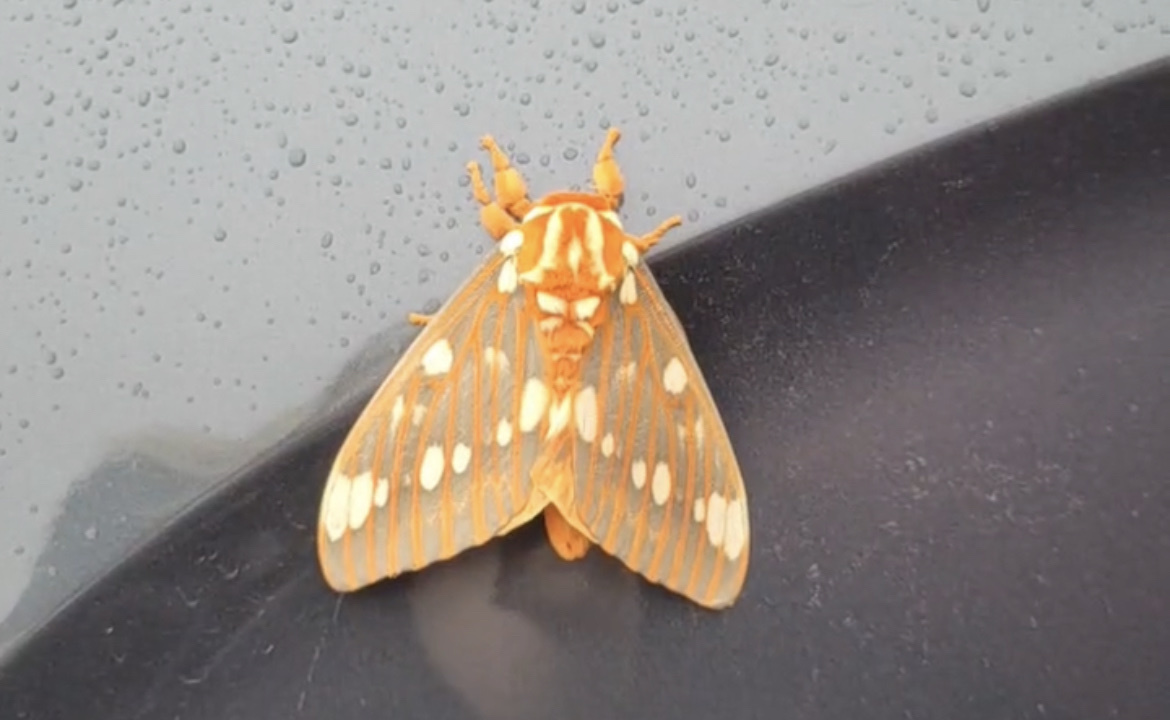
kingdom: Animalia
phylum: Arthropoda
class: Insecta
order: Lepidoptera
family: Saturniidae
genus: Citheronia
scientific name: Citheronia regalis
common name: Hickory horned devil
